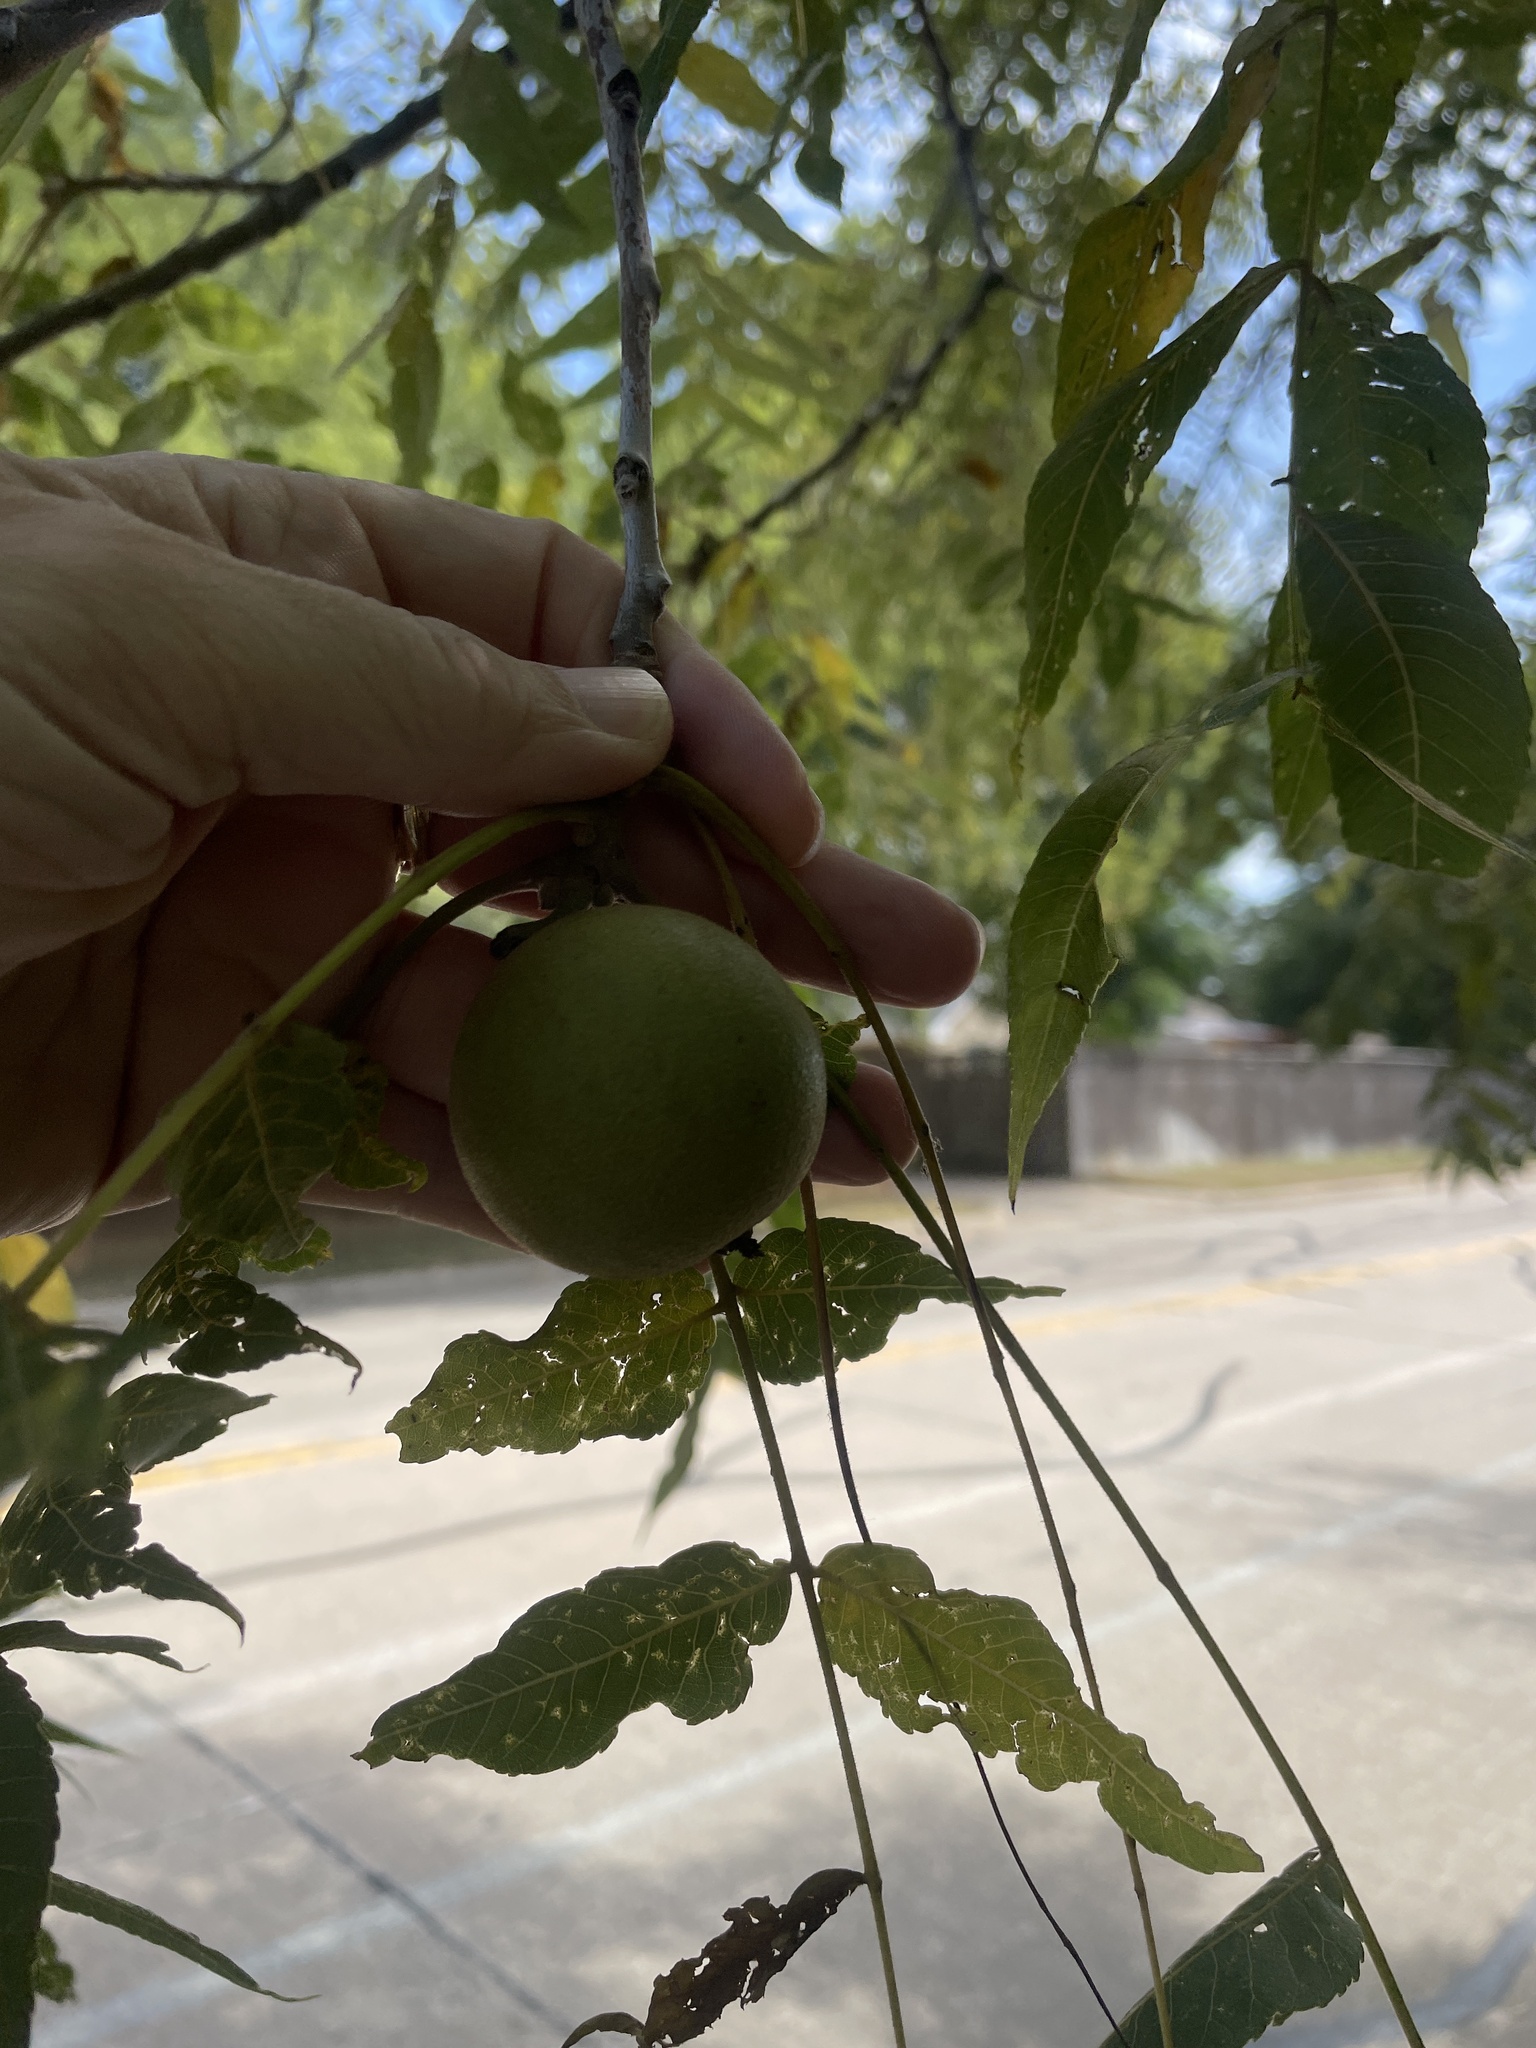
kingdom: Plantae
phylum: Tracheophyta
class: Magnoliopsida
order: Fagales
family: Juglandaceae
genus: Juglans
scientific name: Juglans nigra
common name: Black walnut
